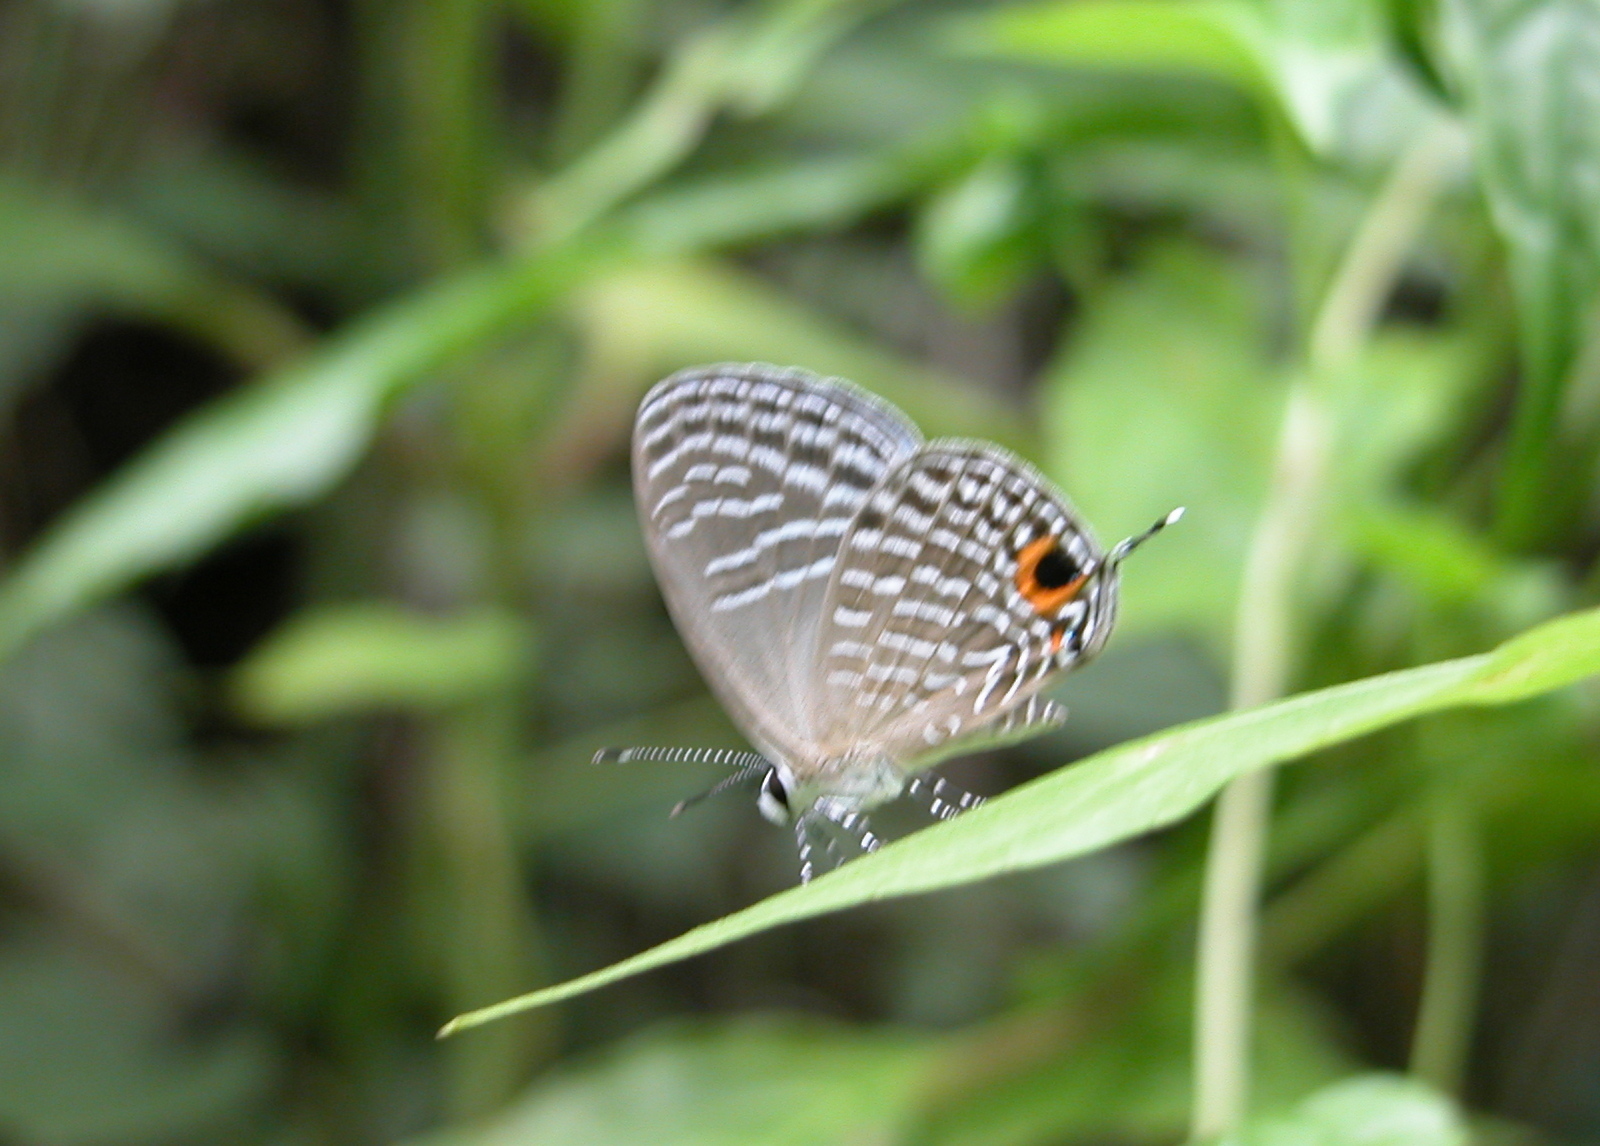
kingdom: Animalia
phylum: Arthropoda
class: Insecta
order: Lepidoptera
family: Lycaenidae
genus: Jamides
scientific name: Jamides celeno
